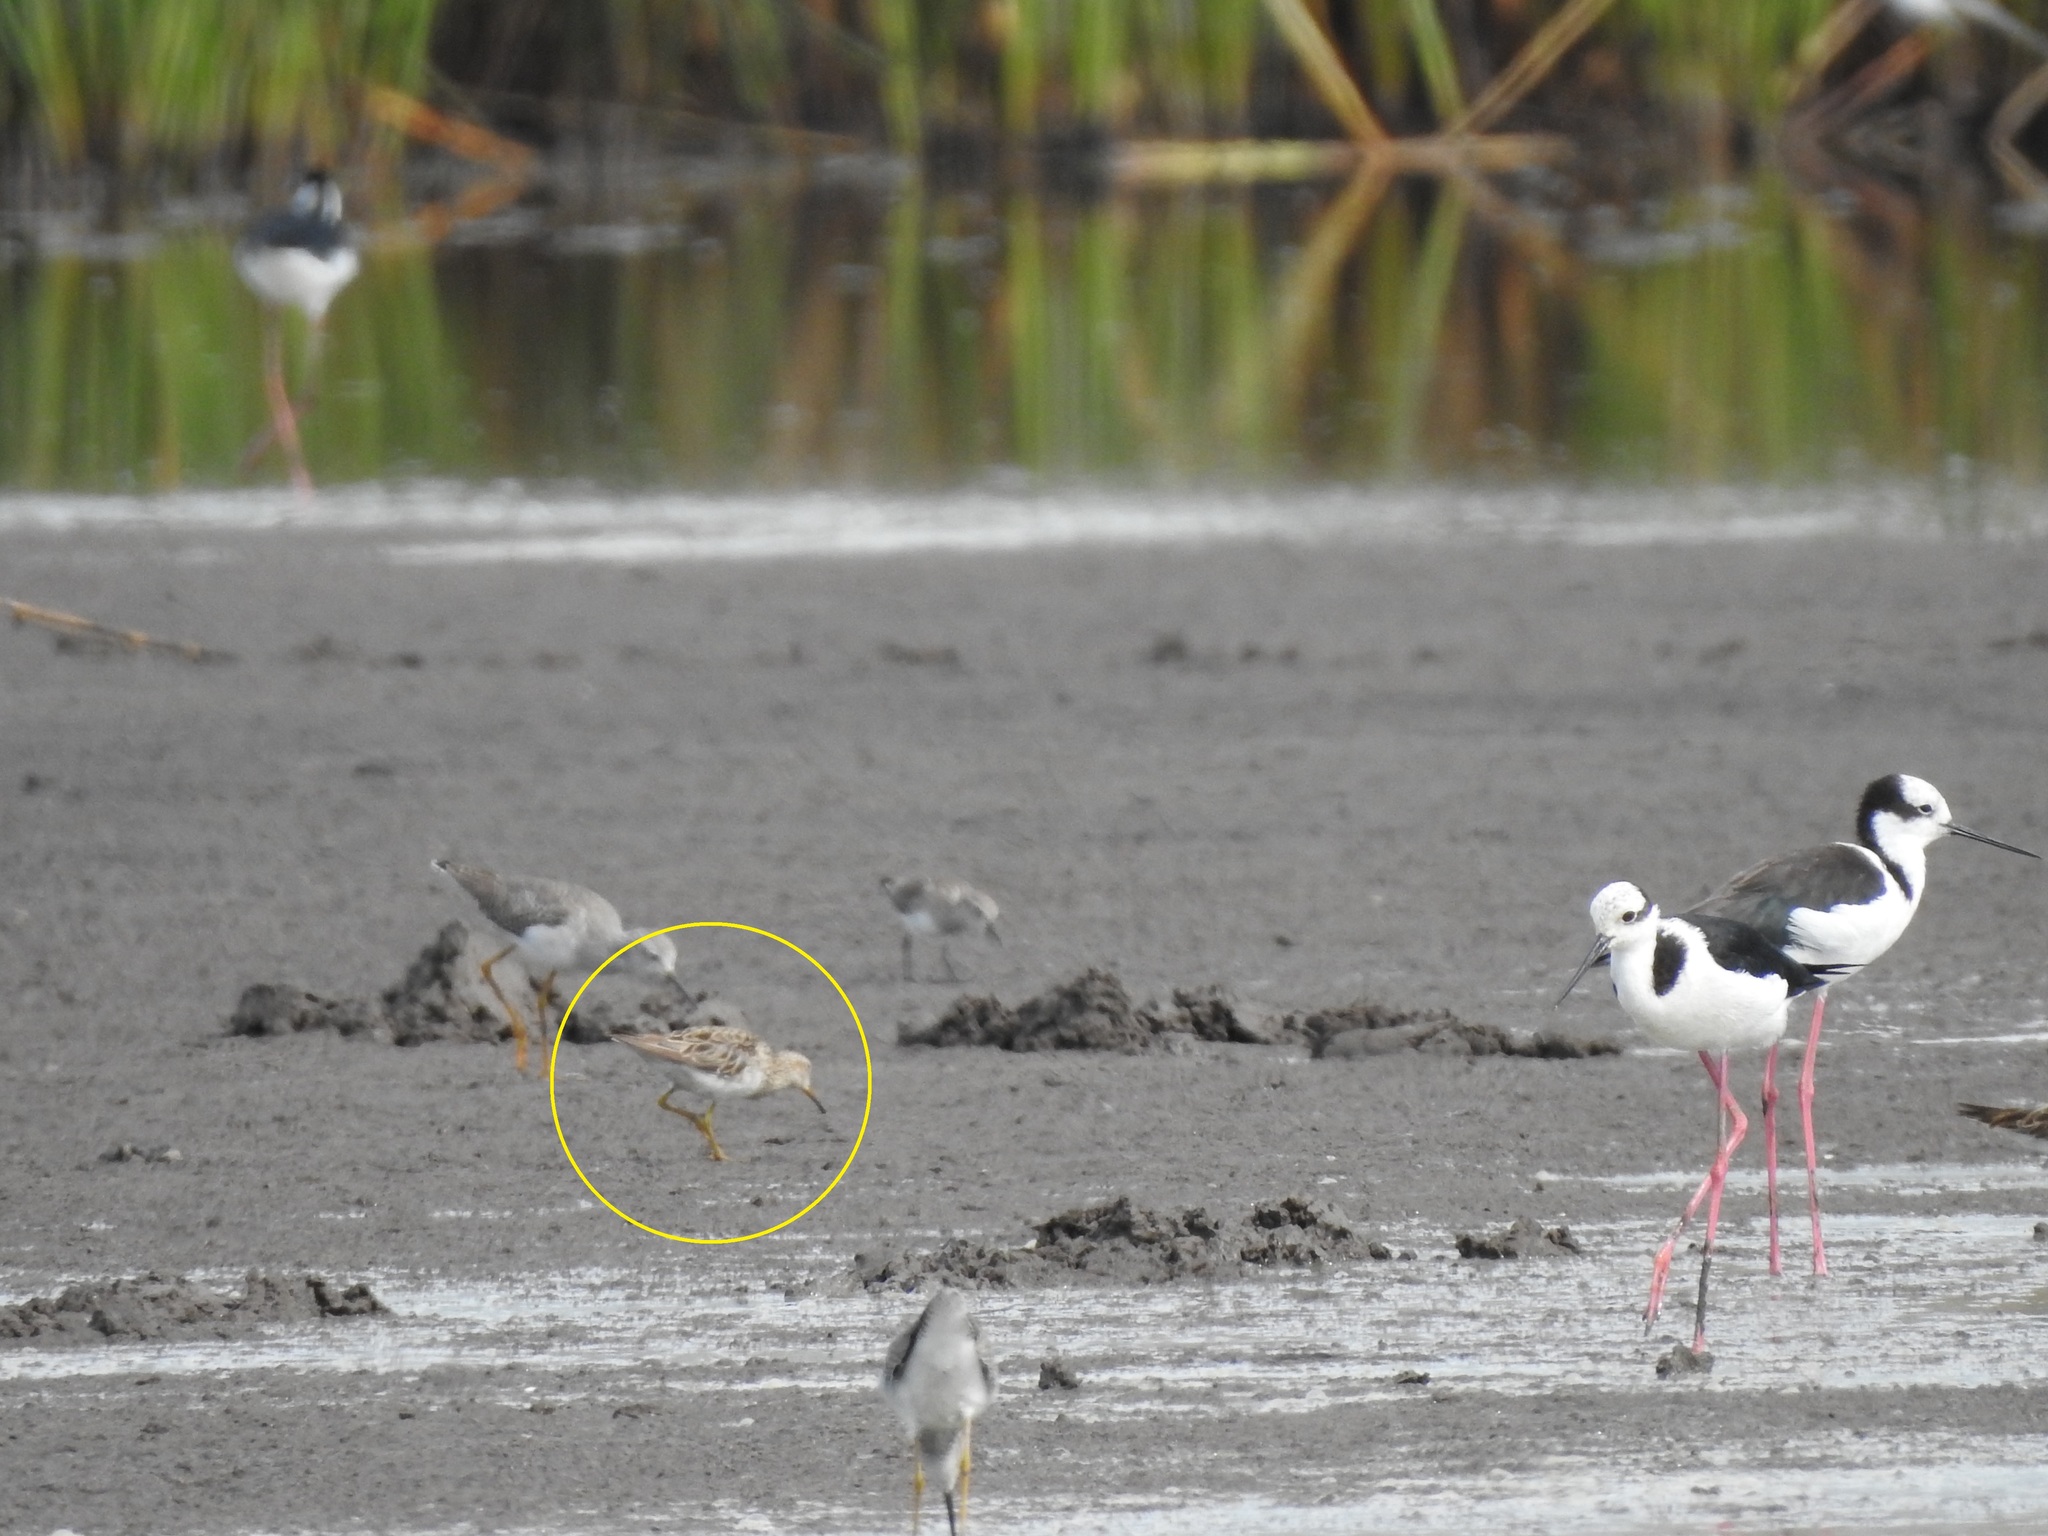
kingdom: Animalia
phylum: Chordata
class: Aves
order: Charadriiformes
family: Scolopacidae
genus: Calidris
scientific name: Calidris melanotos
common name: Pectoral sandpiper
